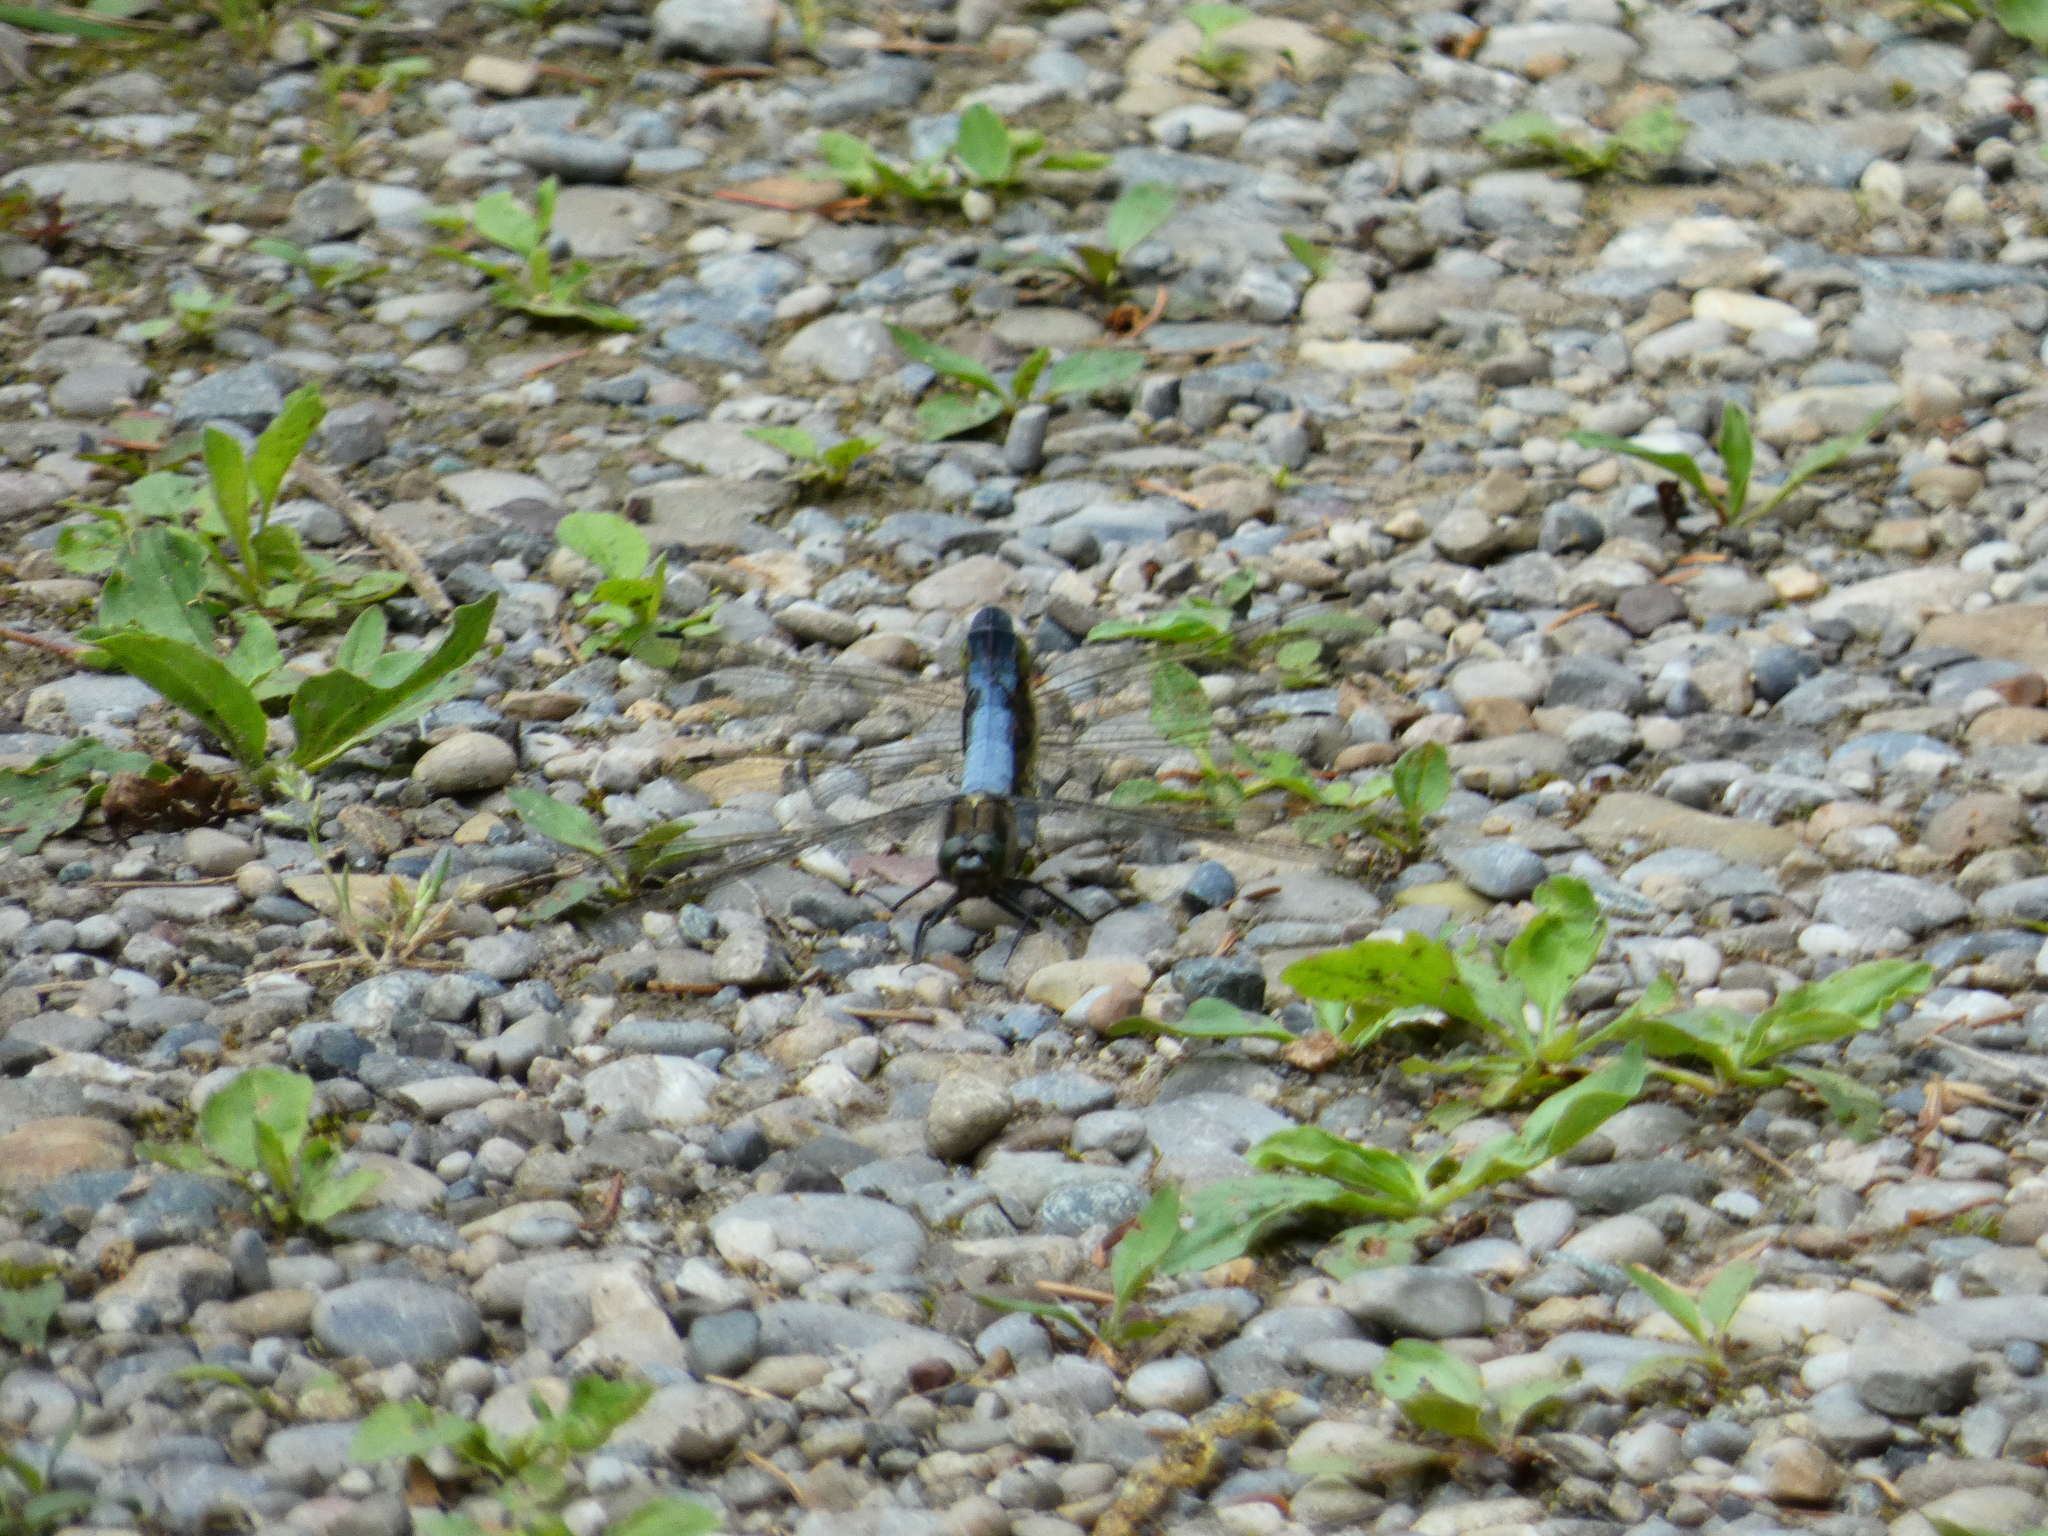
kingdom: Animalia
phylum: Arthropoda
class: Insecta
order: Odonata
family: Libellulidae
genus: Orthetrum
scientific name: Orthetrum cancellatum
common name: Black-tailed skimmer
